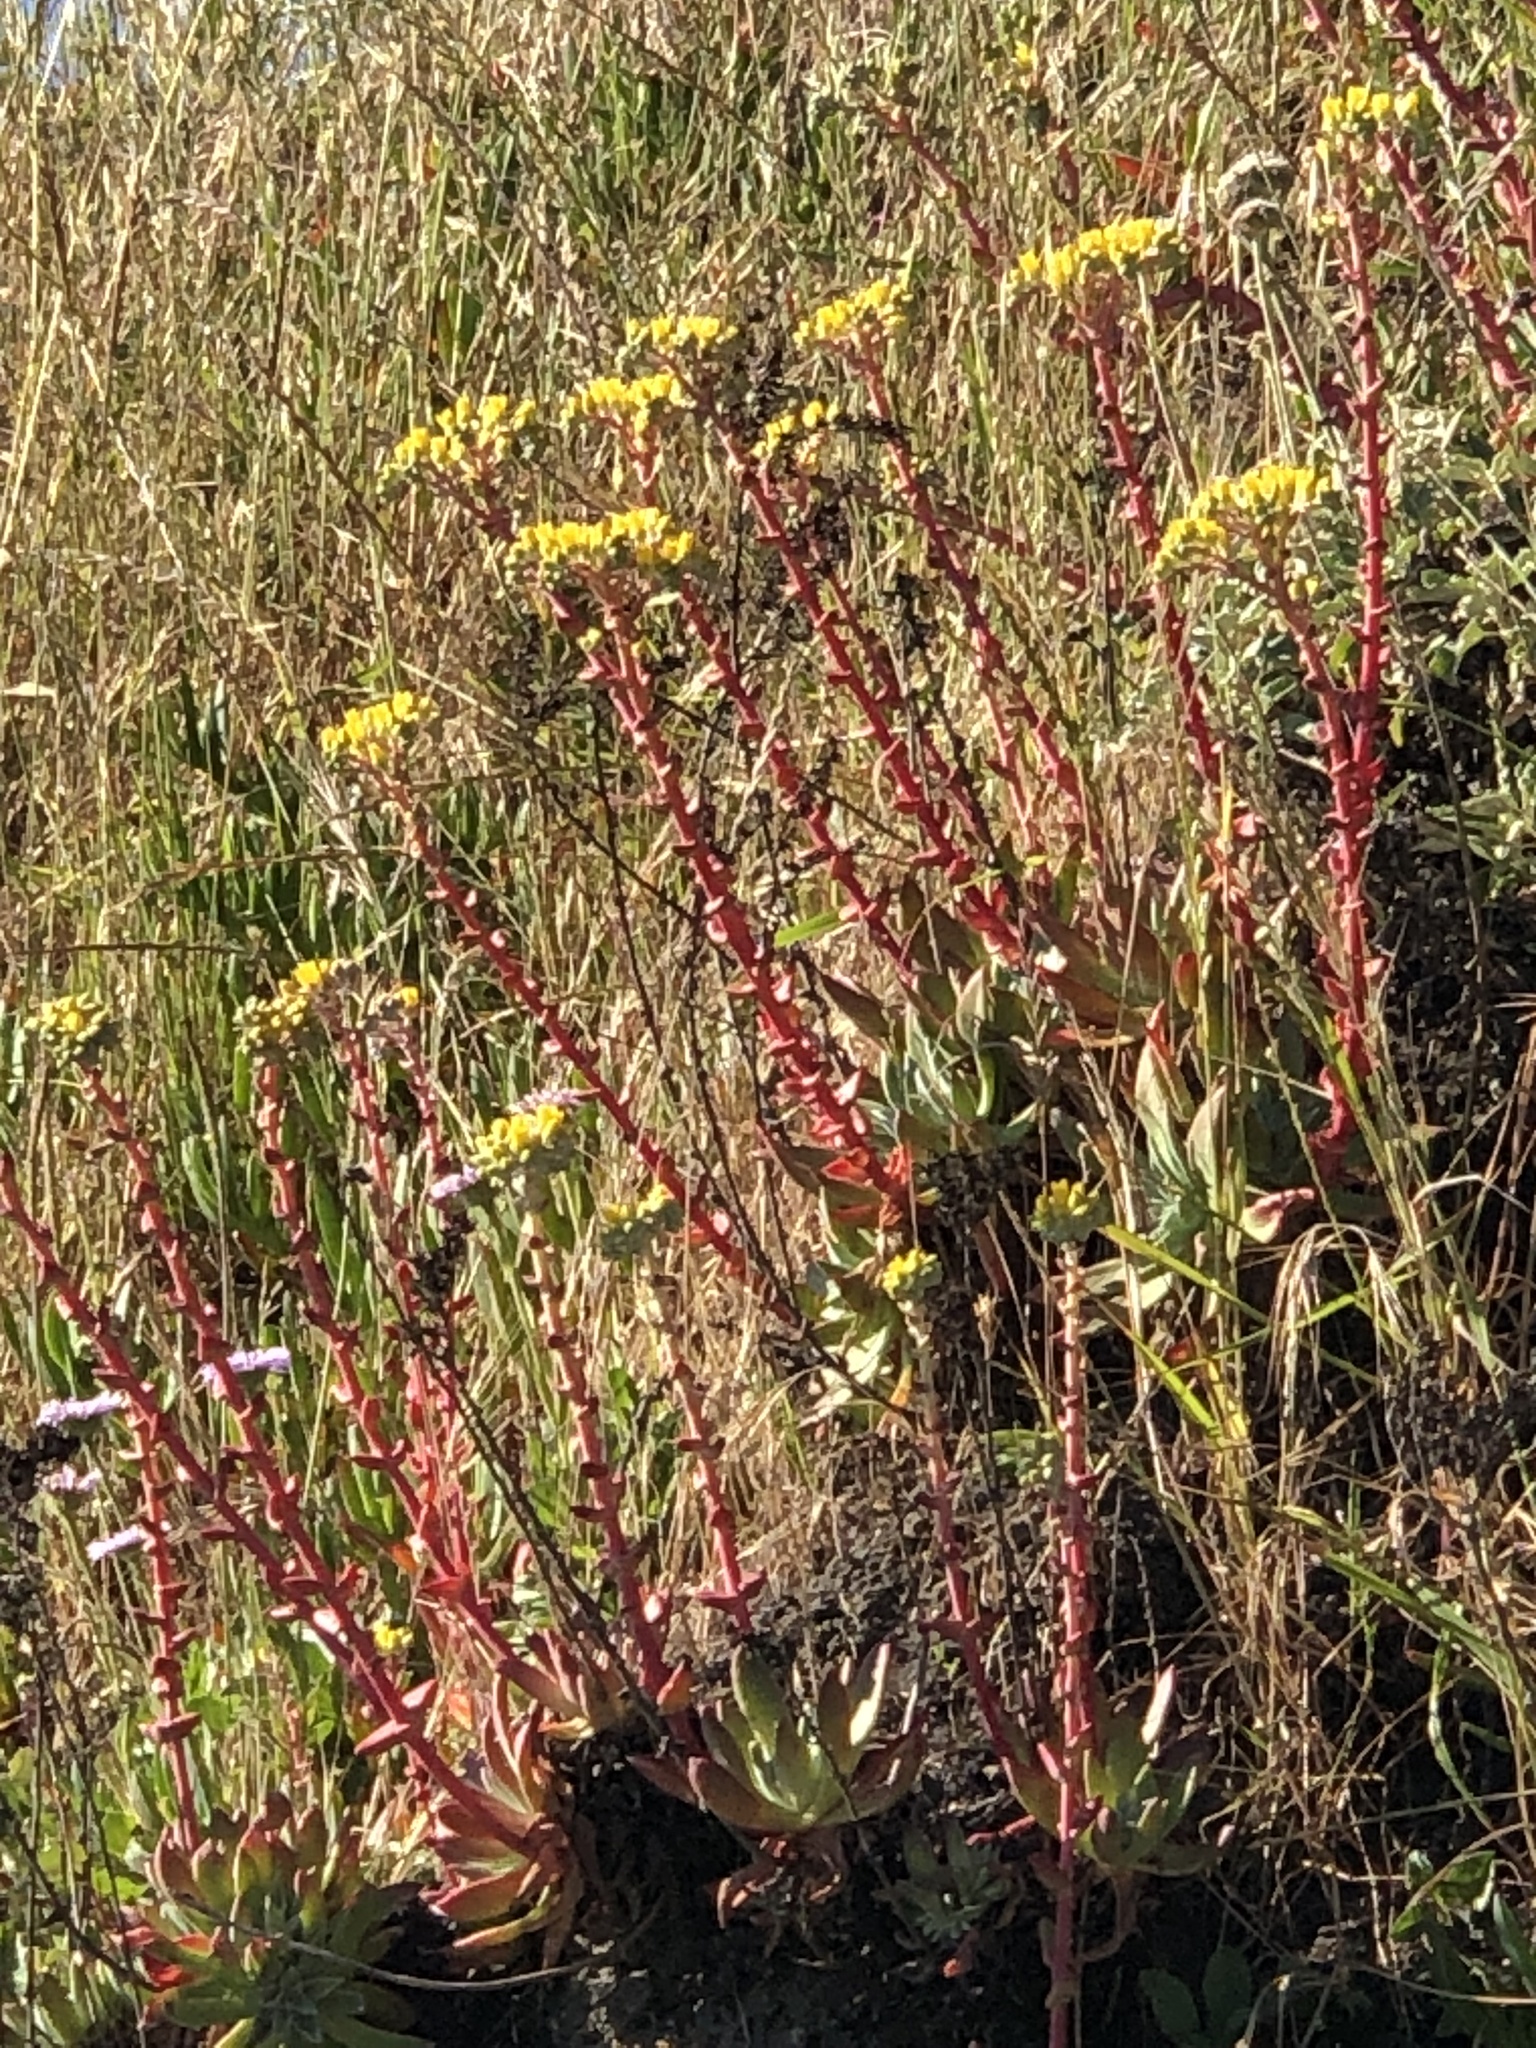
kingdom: Plantae
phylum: Tracheophyta
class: Magnoliopsida
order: Saxifragales
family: Crassulaceae
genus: Dudleya
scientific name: Dudleya caespitosa
